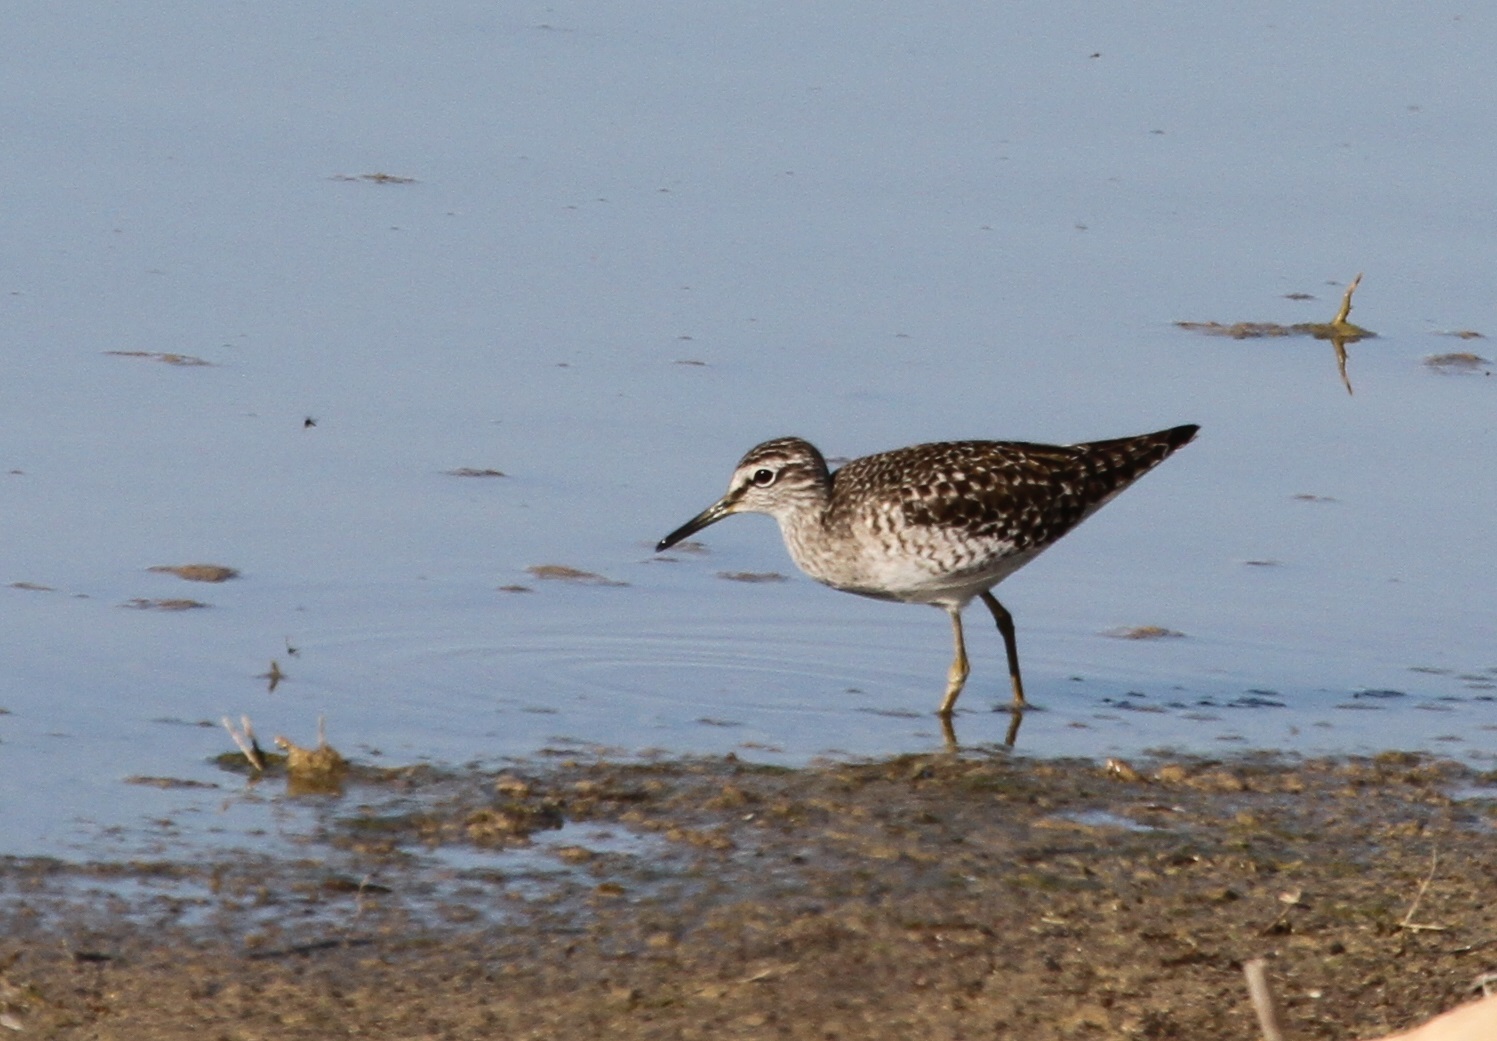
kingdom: Animalia
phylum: Chordata
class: Aves
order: Charadriiformes
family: Scolopacidae
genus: Tringa
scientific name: Tringa glareola
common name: Wood sandpiper
